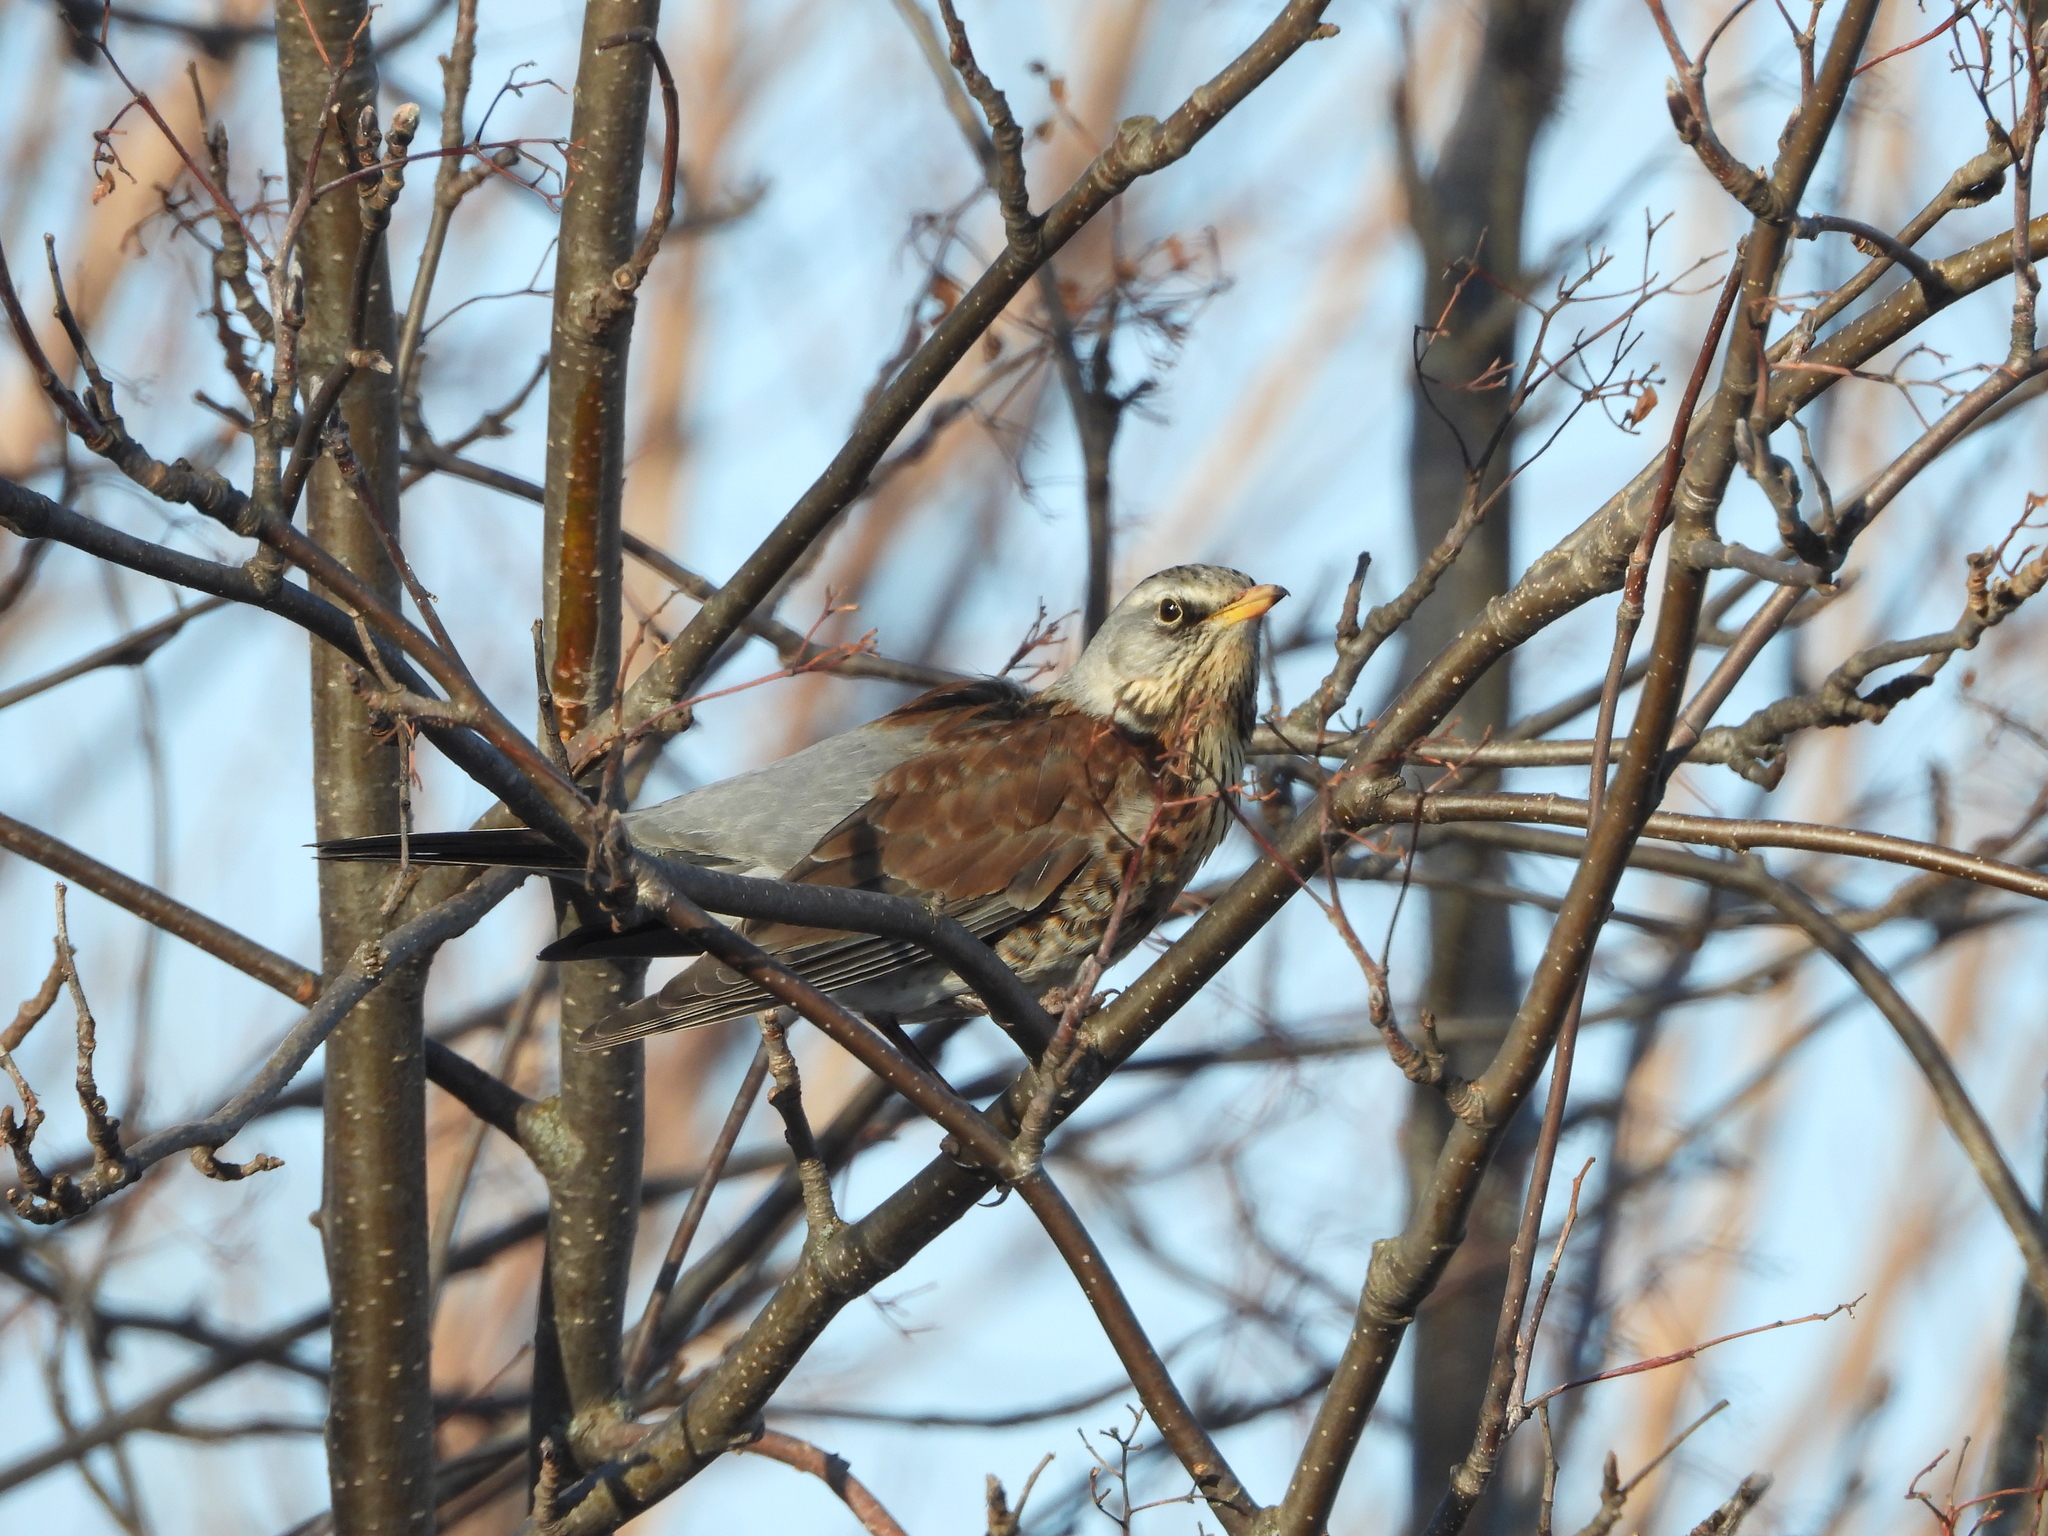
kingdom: Animalia
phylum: Chordata
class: Aves
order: Passeriformes
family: Turdidae
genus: Turdus
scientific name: Turdus pilaris
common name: Fieldfare
